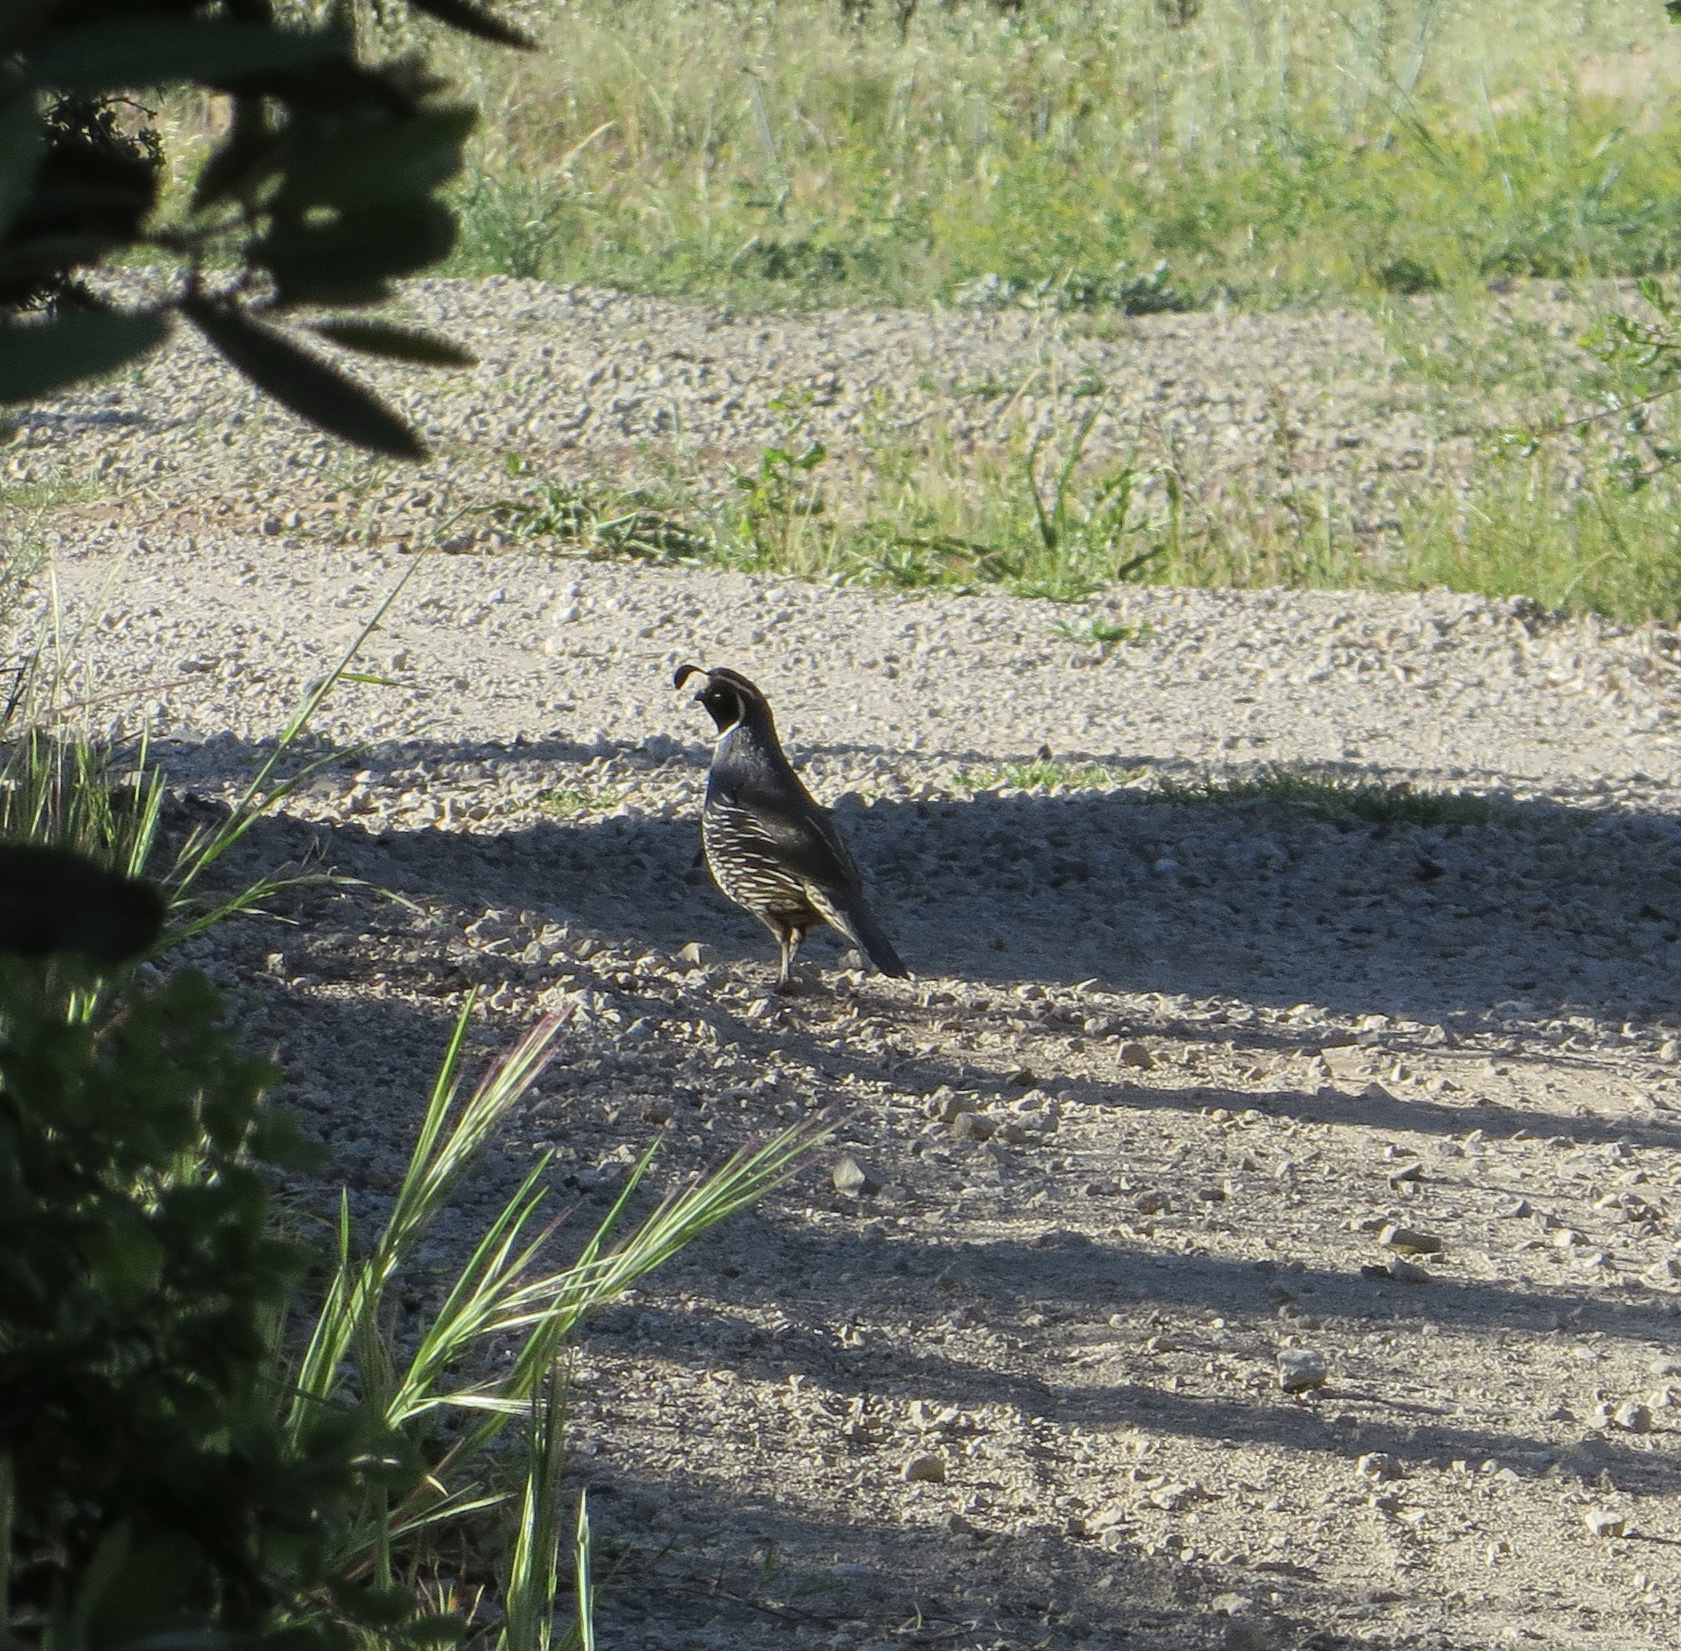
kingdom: Animalia
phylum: Chordata
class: Aves
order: Galliformes
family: Odontophoridae
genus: Callipepla
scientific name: Callipepla californica
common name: California quail
